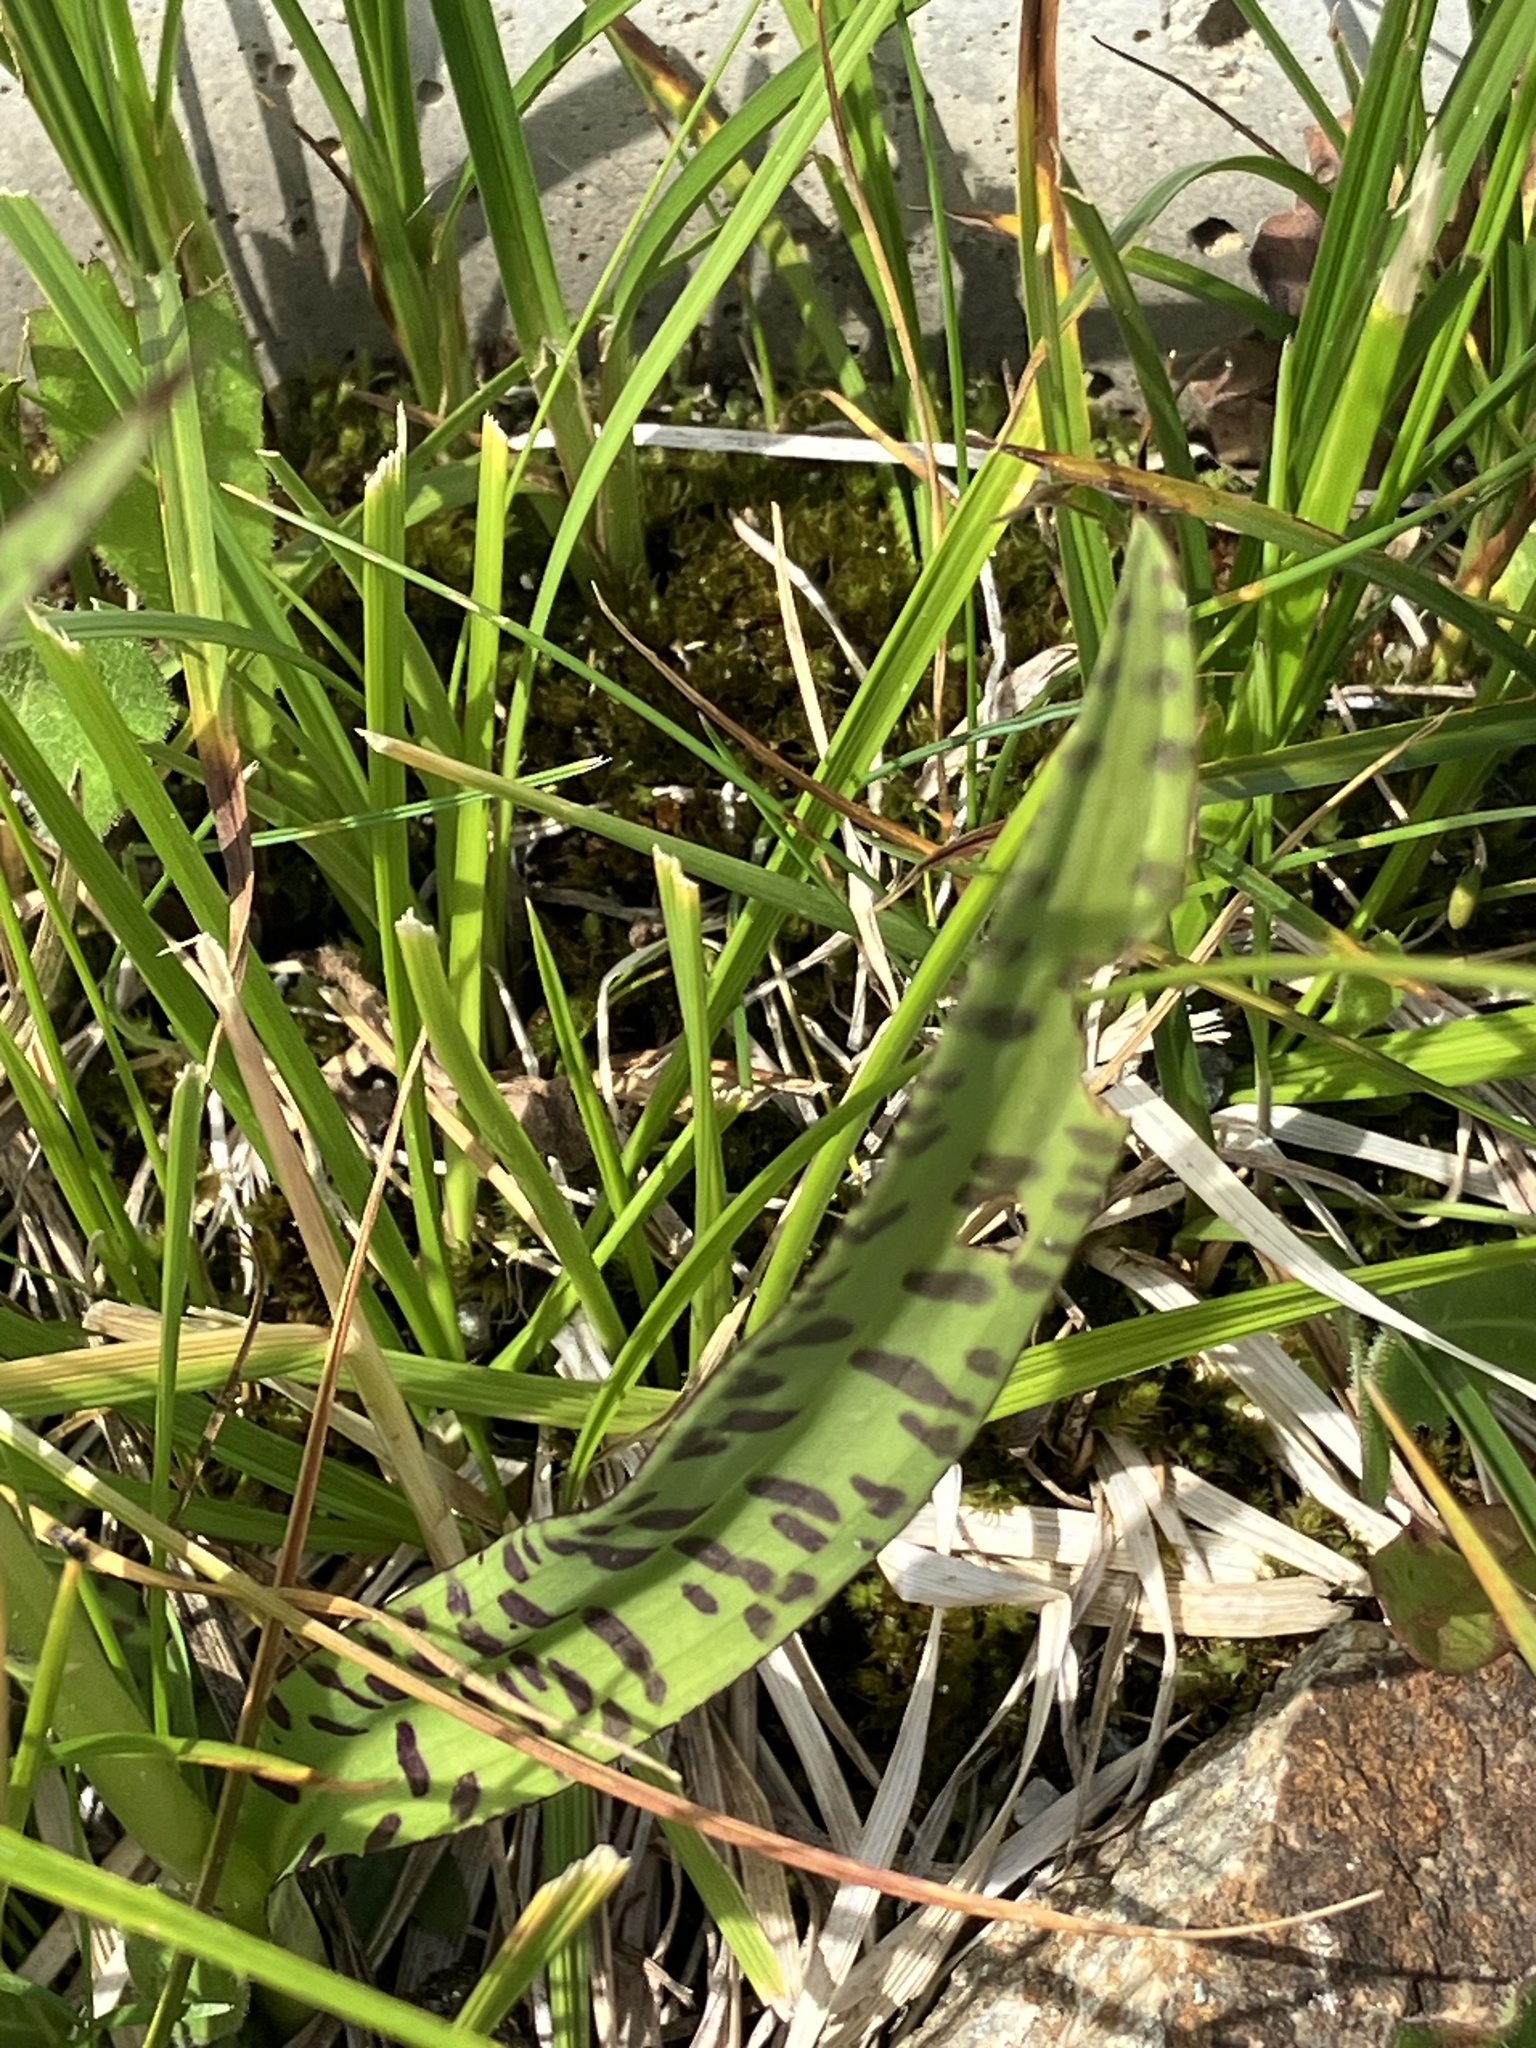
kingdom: Plantae
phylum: Tracheophyta
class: Liliopsida
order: Asparagales
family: Orchidaceae
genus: Dactylorhiza
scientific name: Dactylorhiza maculata
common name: Heath spotted-orchid
